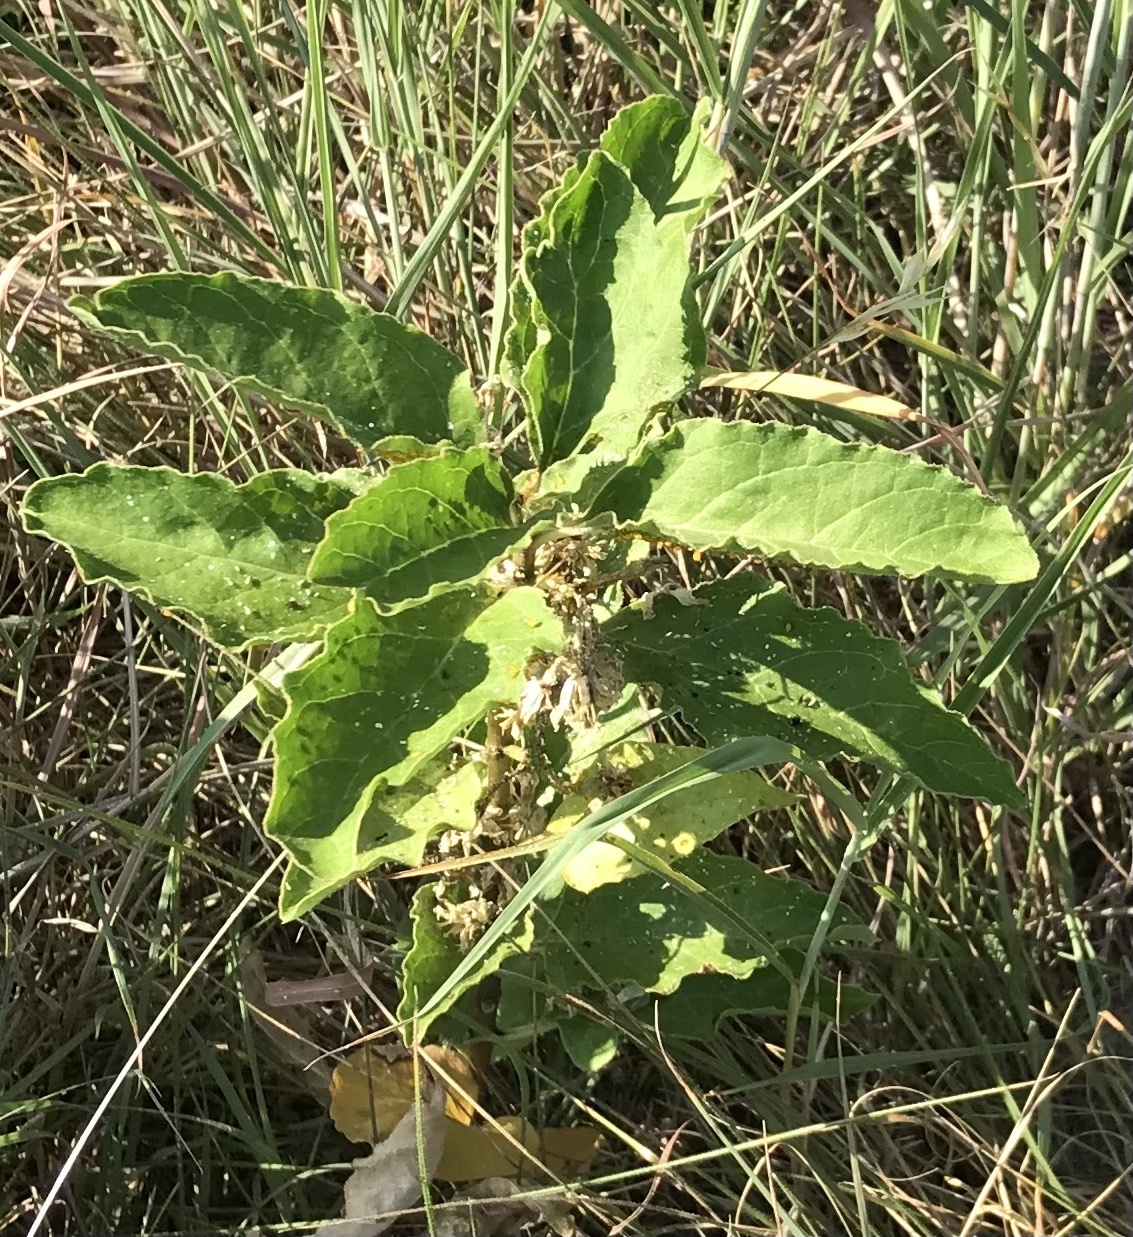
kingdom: Plantae
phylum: Tracheophyta
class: Magnoliopsida
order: Gentianales
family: Apocynaceae
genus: Asclepias
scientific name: Asclepias oenotheroides
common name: Zizotes milkweed
